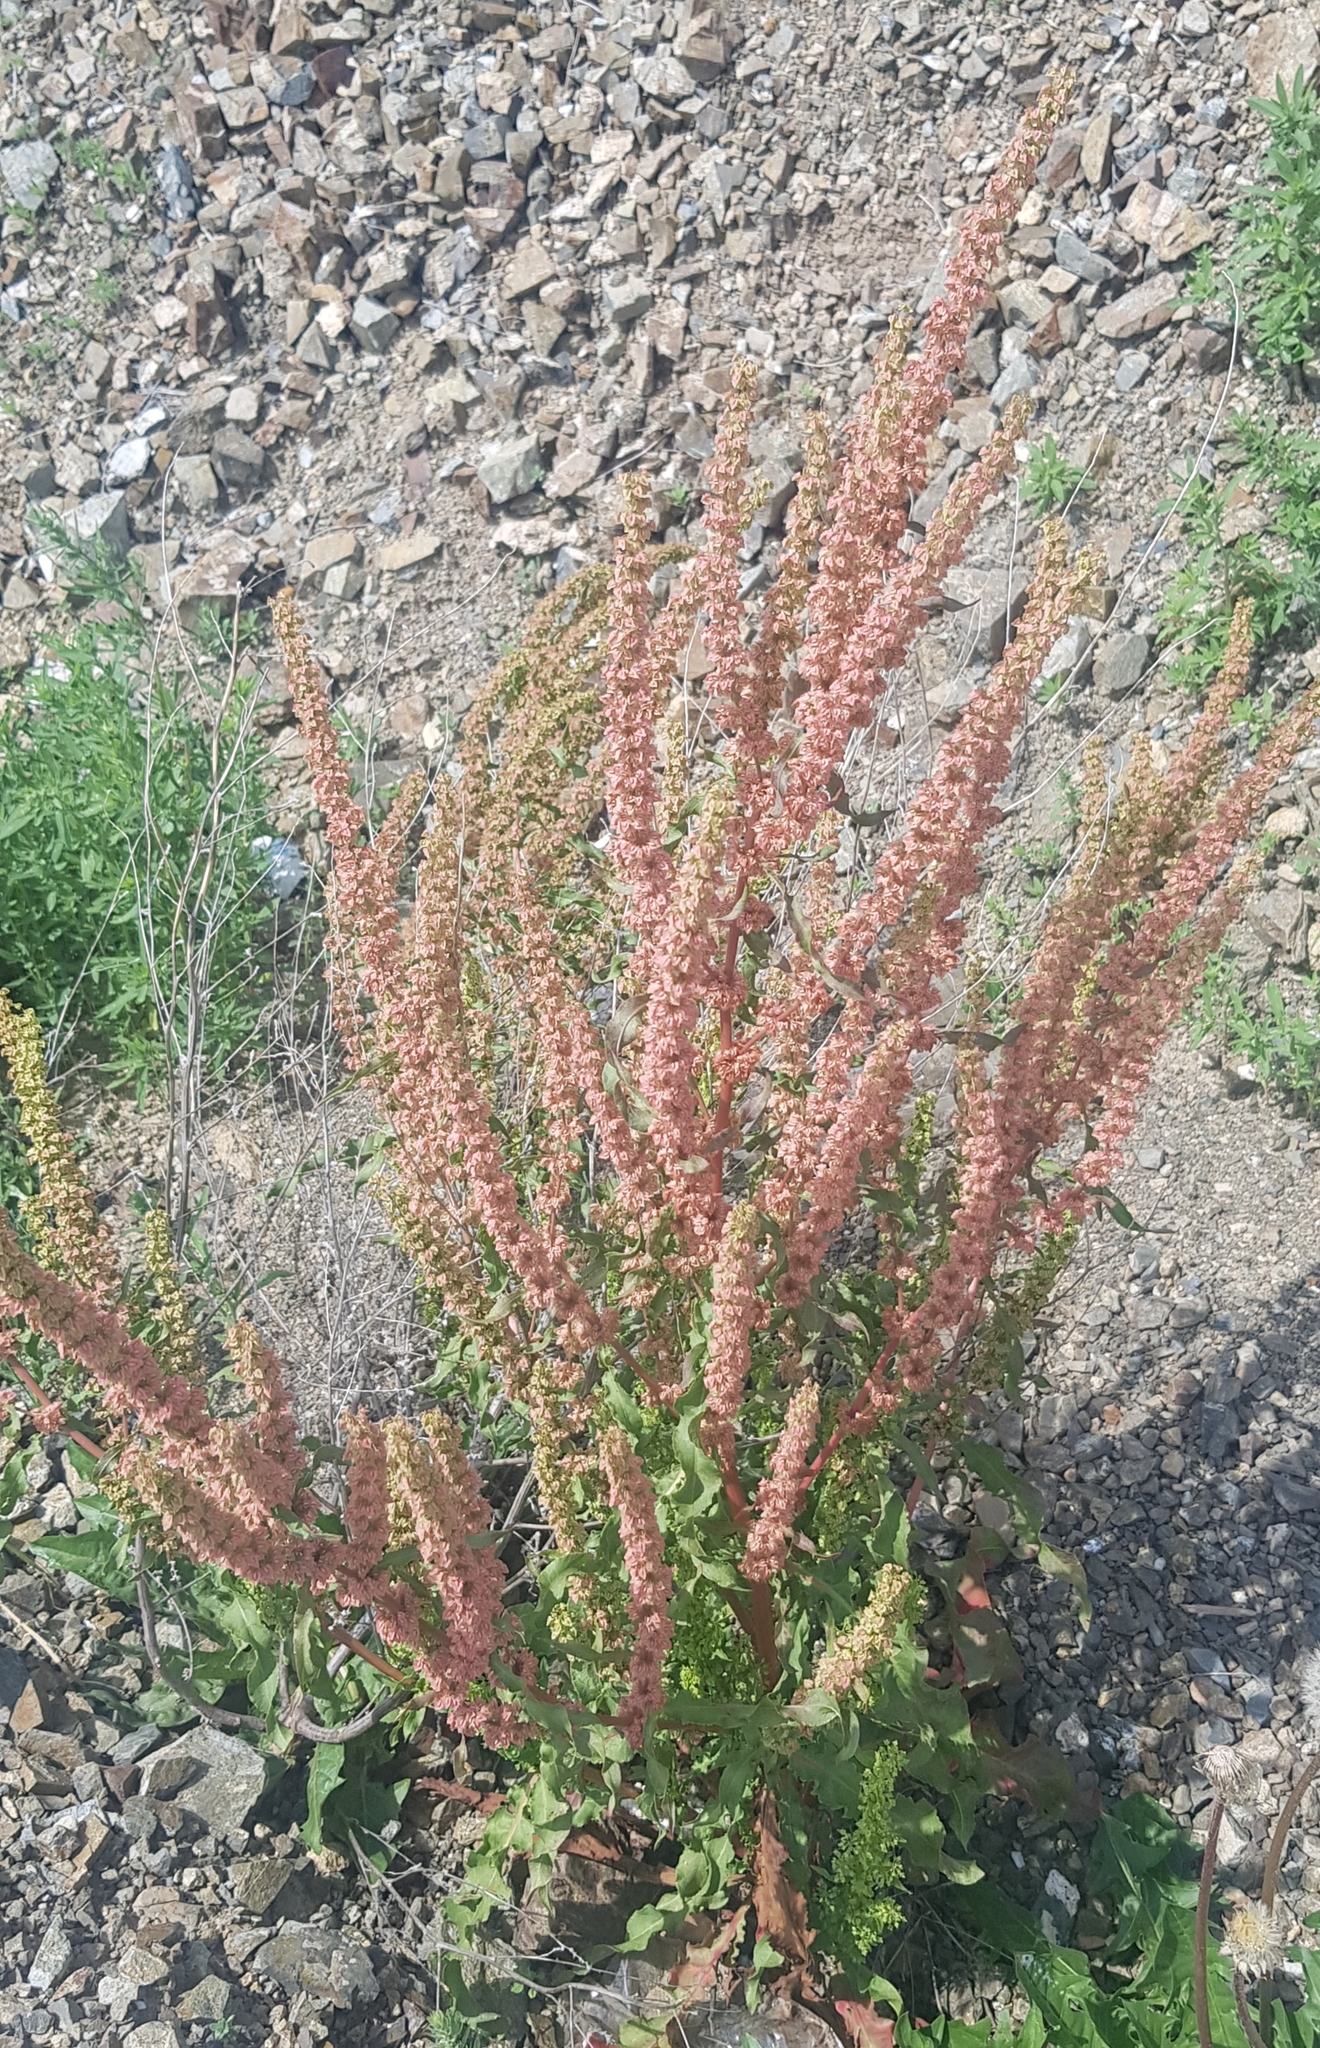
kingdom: Plantae
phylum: Tracheophyta
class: Magnoliopsida
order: Caryophyllales
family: Polygonaceae
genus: Rumex
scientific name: Rumex crispus
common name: Curled dock
